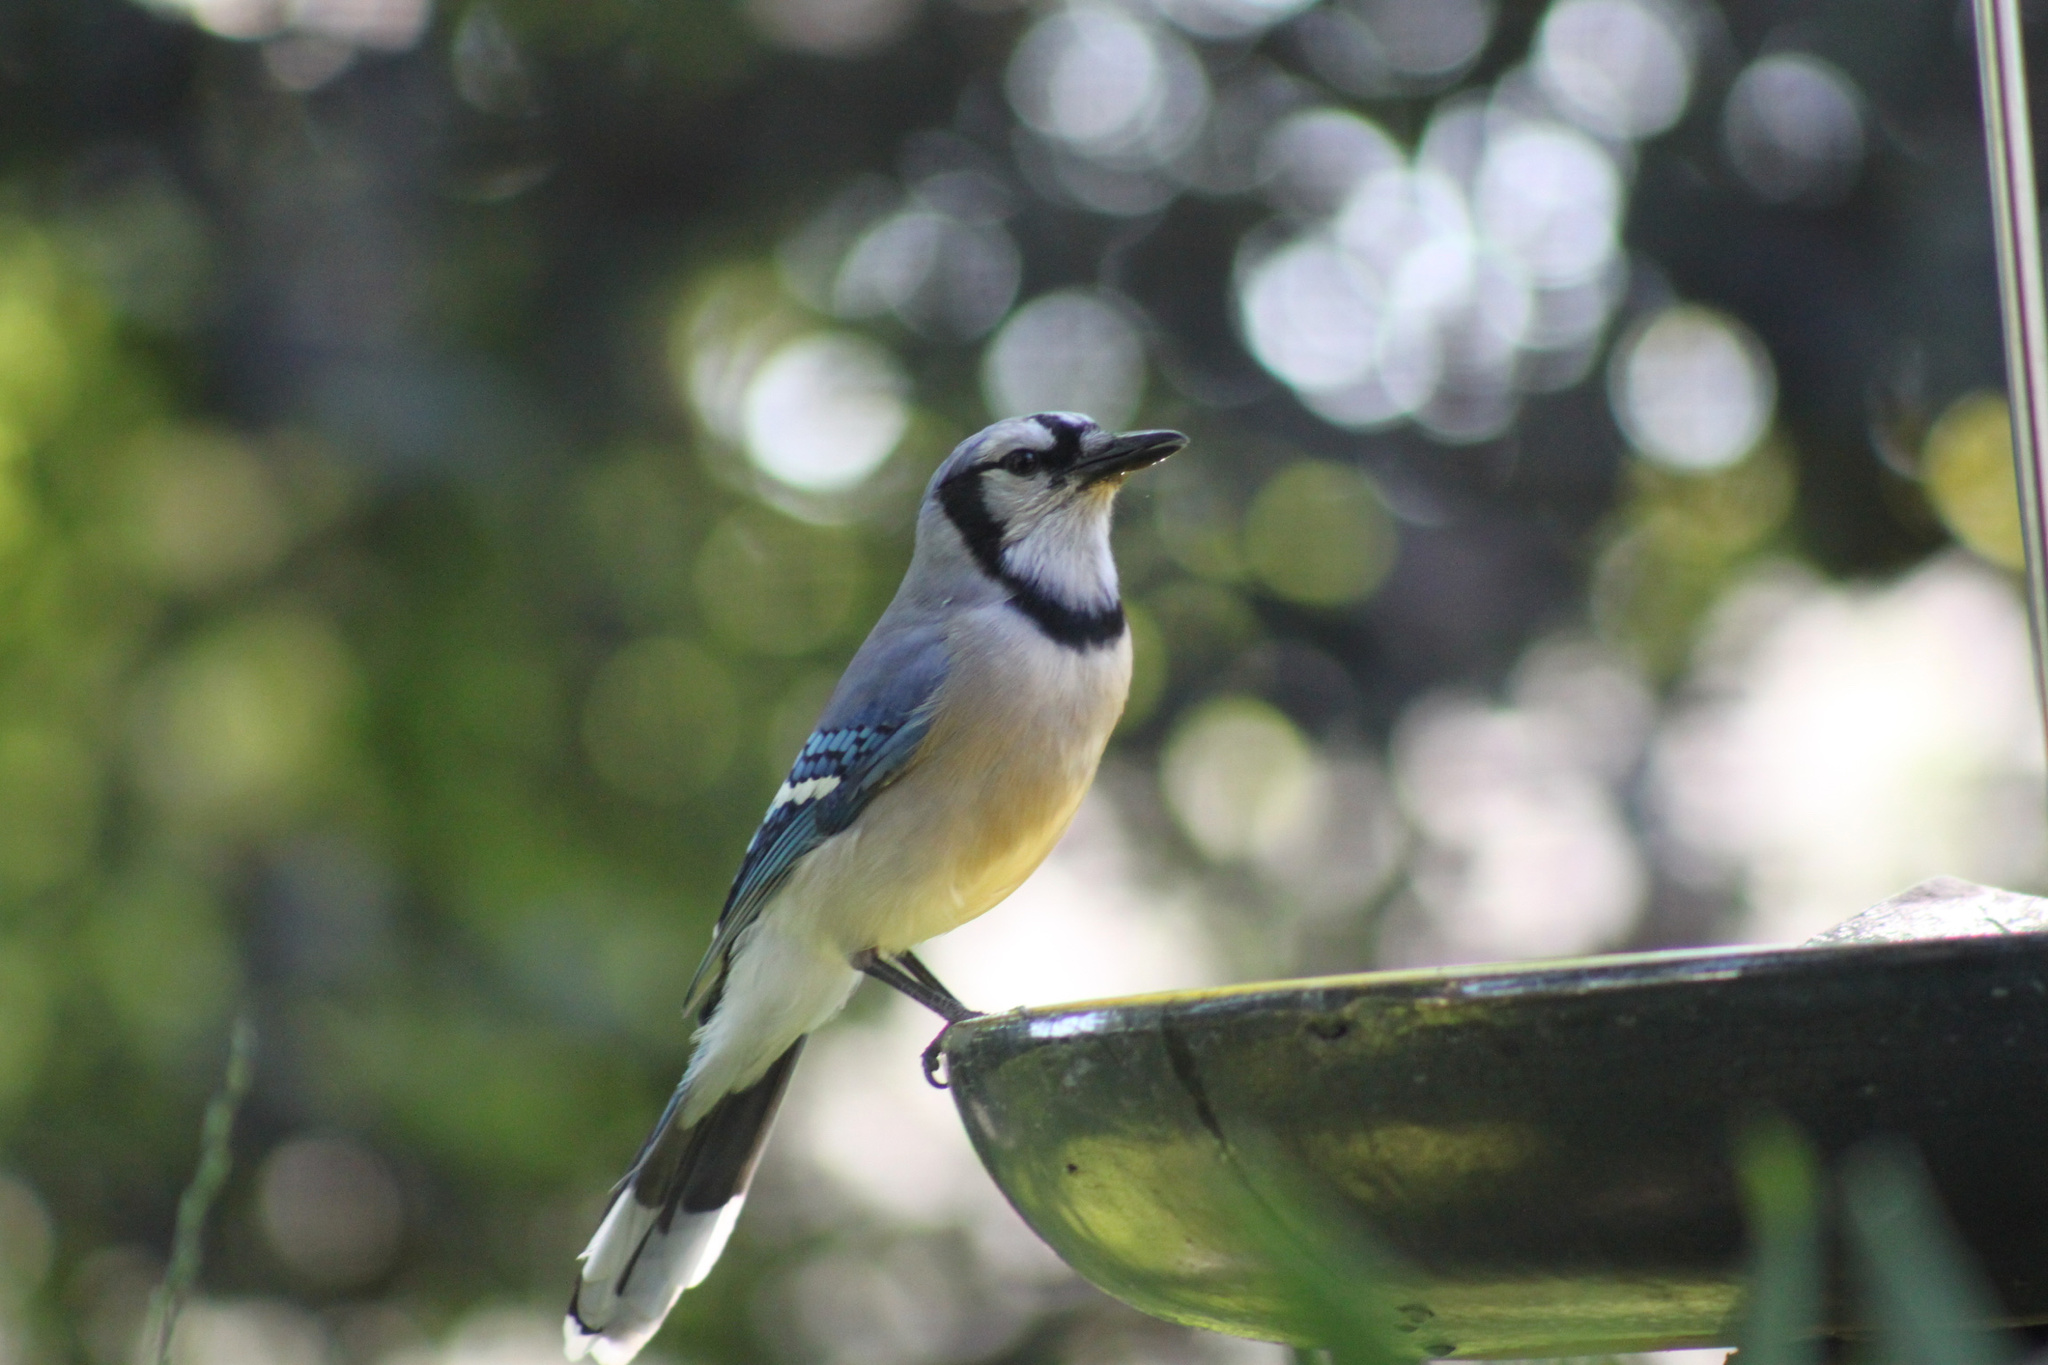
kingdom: Animalia
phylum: Chordata
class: Aves
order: Passeriformes
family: Corvidae
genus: Cyanocitta
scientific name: Cyanocitta cristata
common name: Blue jay
